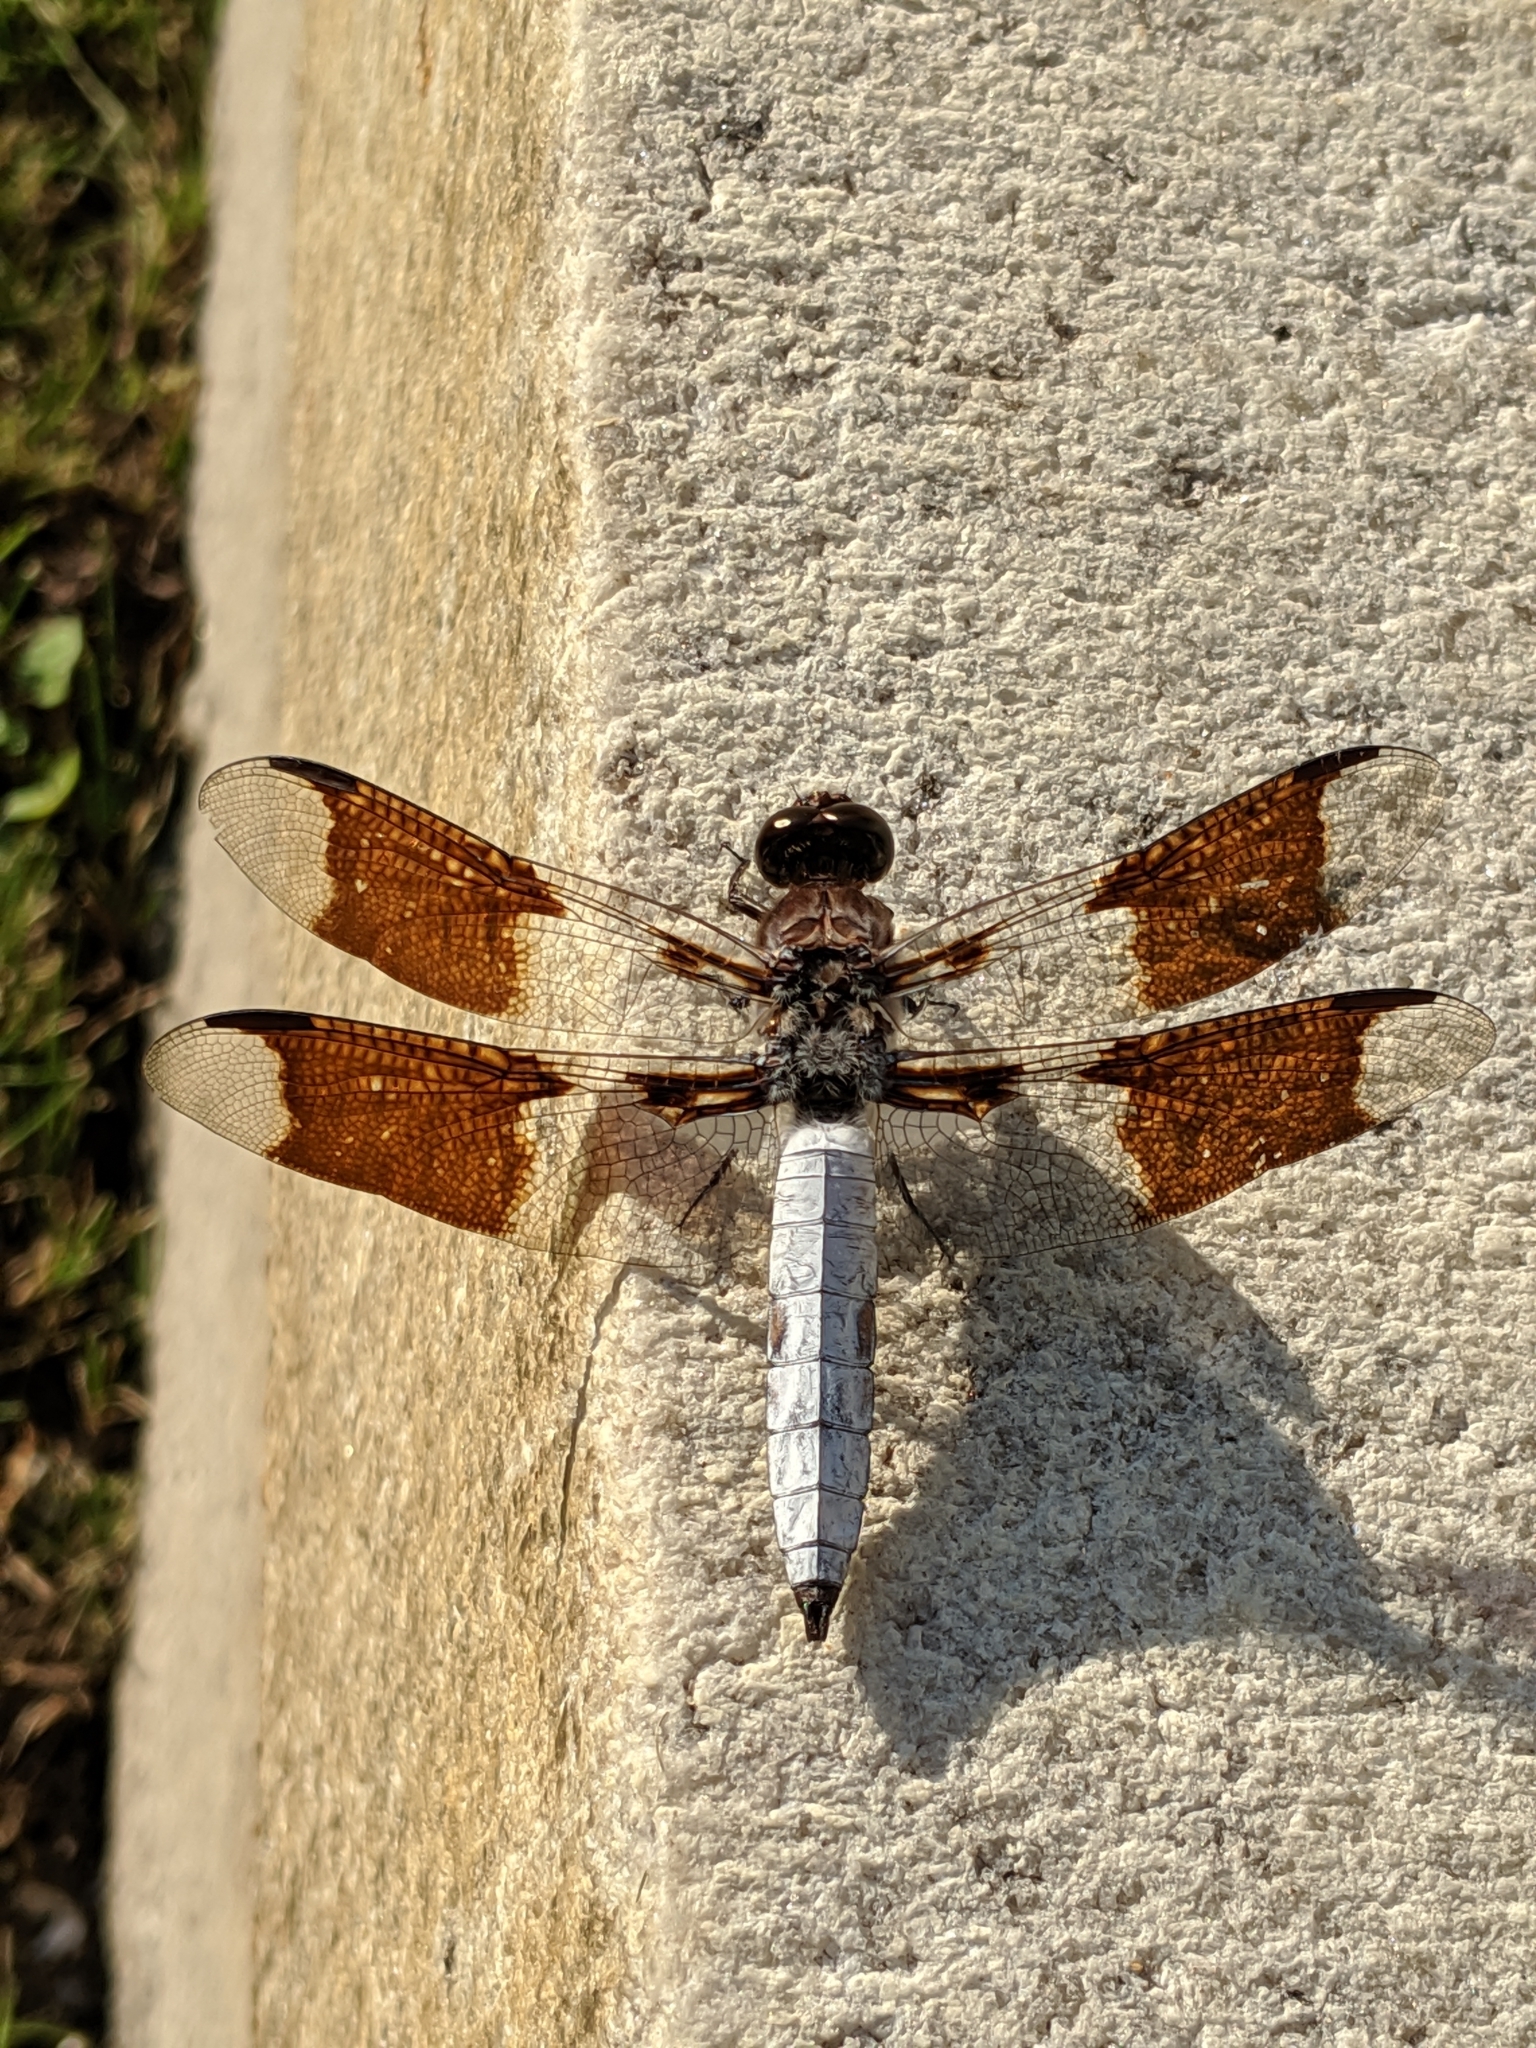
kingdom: Animalia
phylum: Arthropoda
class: Insecta
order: Odonata
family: Libellulidae
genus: Plathemis
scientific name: Plathemis lydia
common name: Common whitetail
